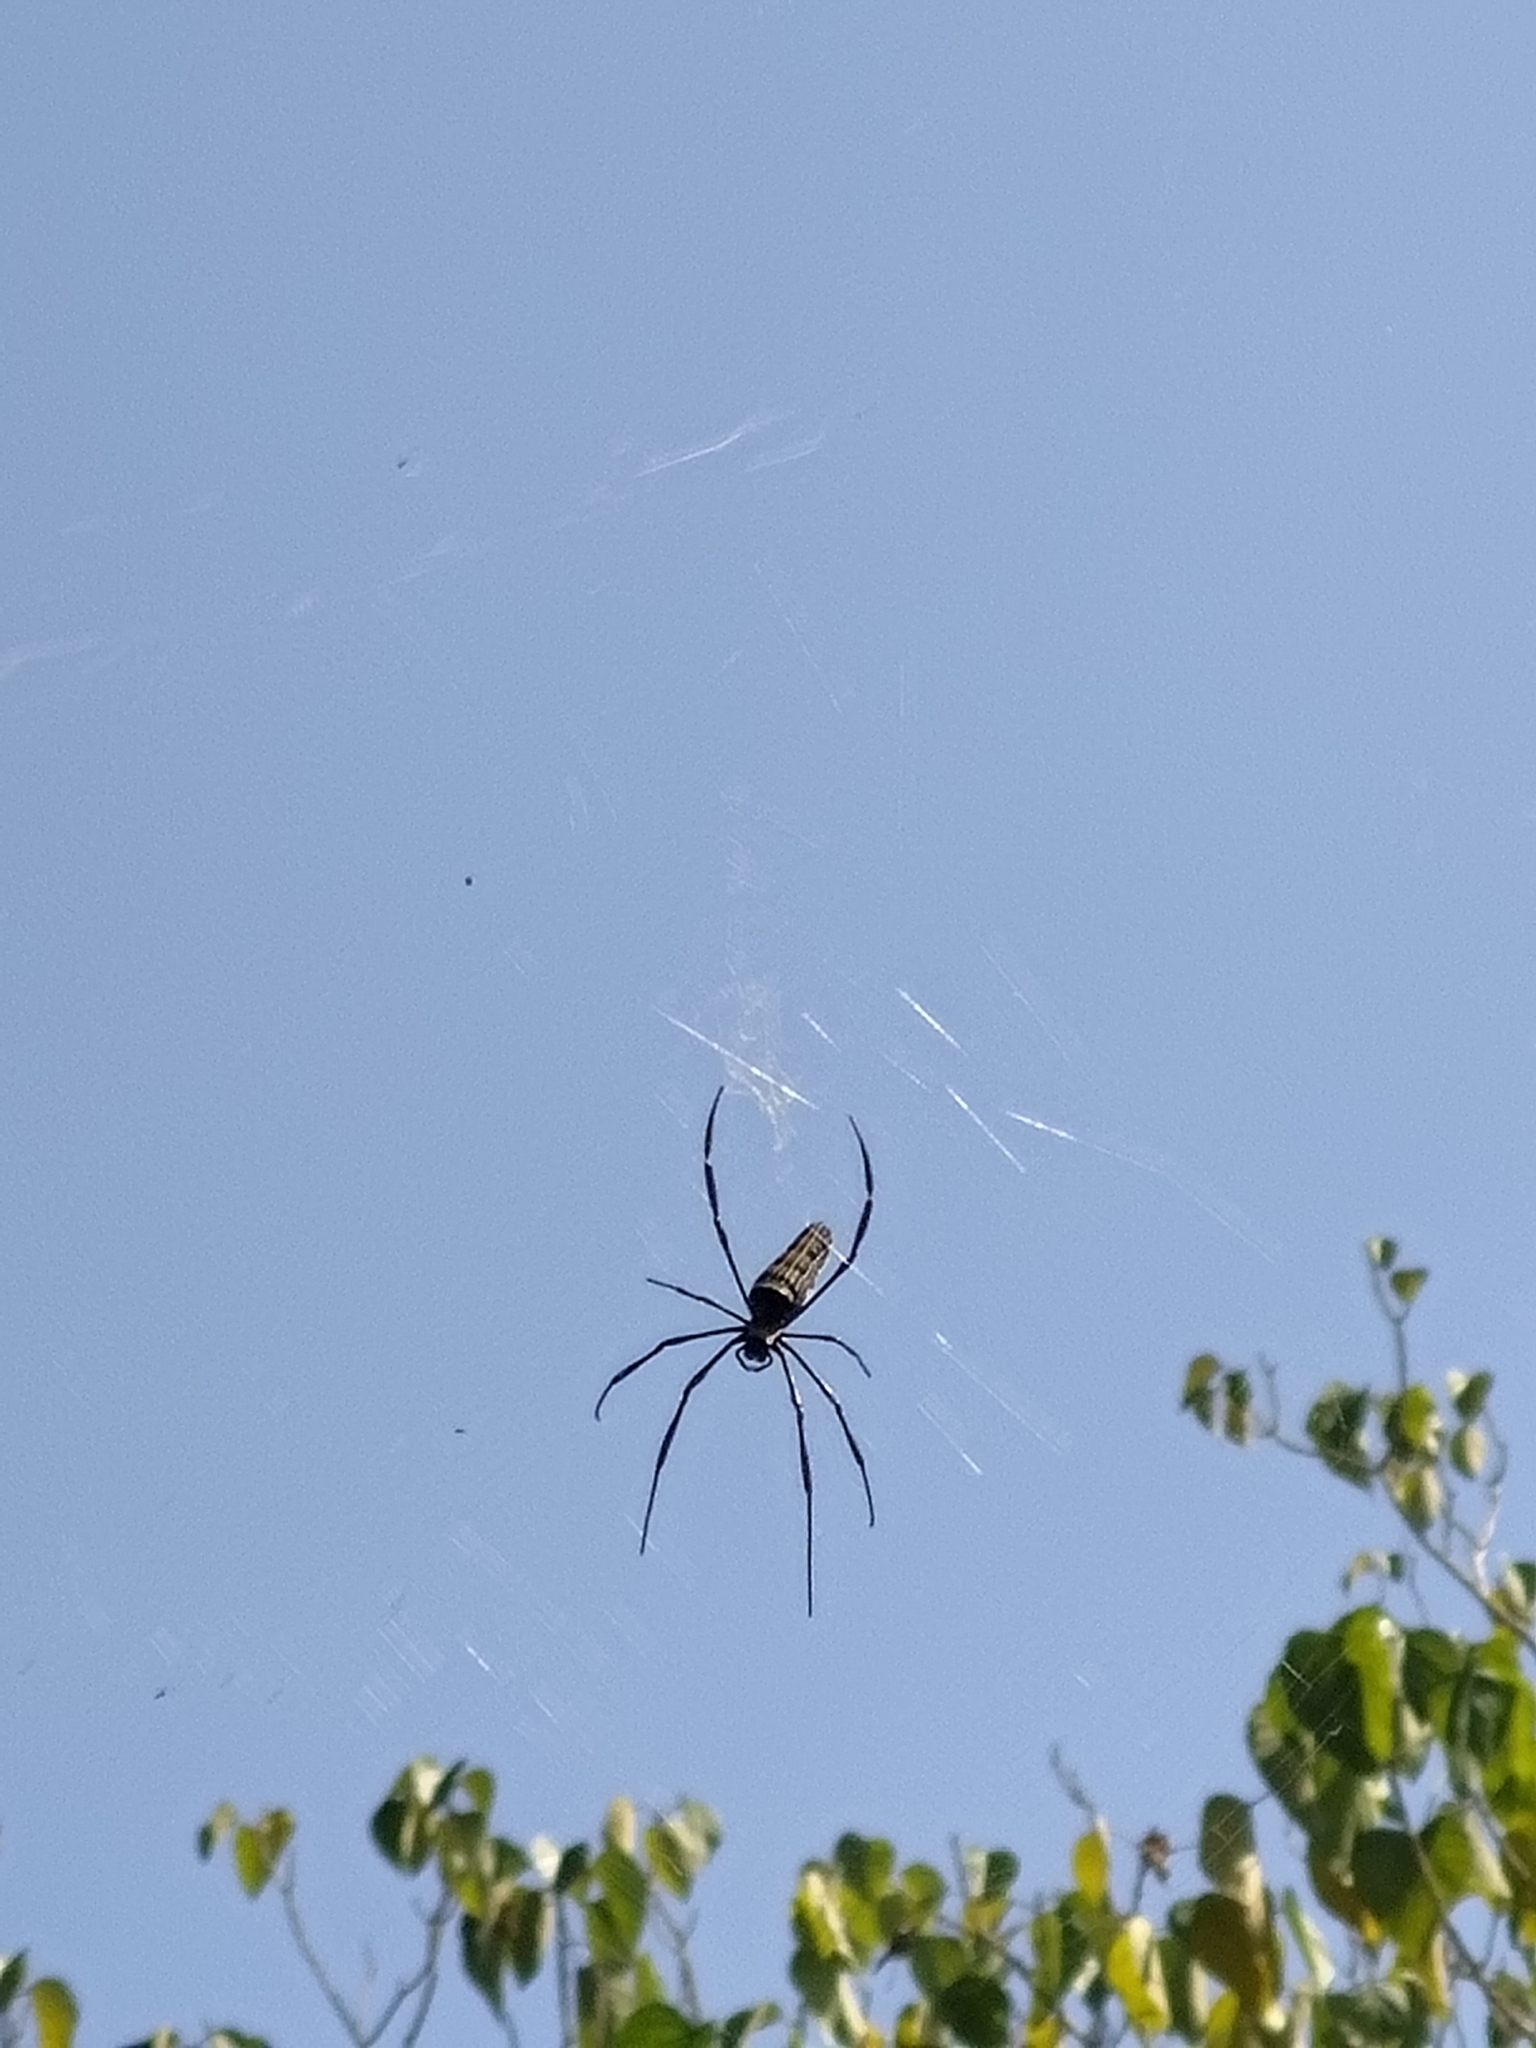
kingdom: Animalia
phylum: Arthropoda
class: Arachnida
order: Araneae
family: Araneidae
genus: Nephila
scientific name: Nephila pilipes
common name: Giant golden orb weaver
